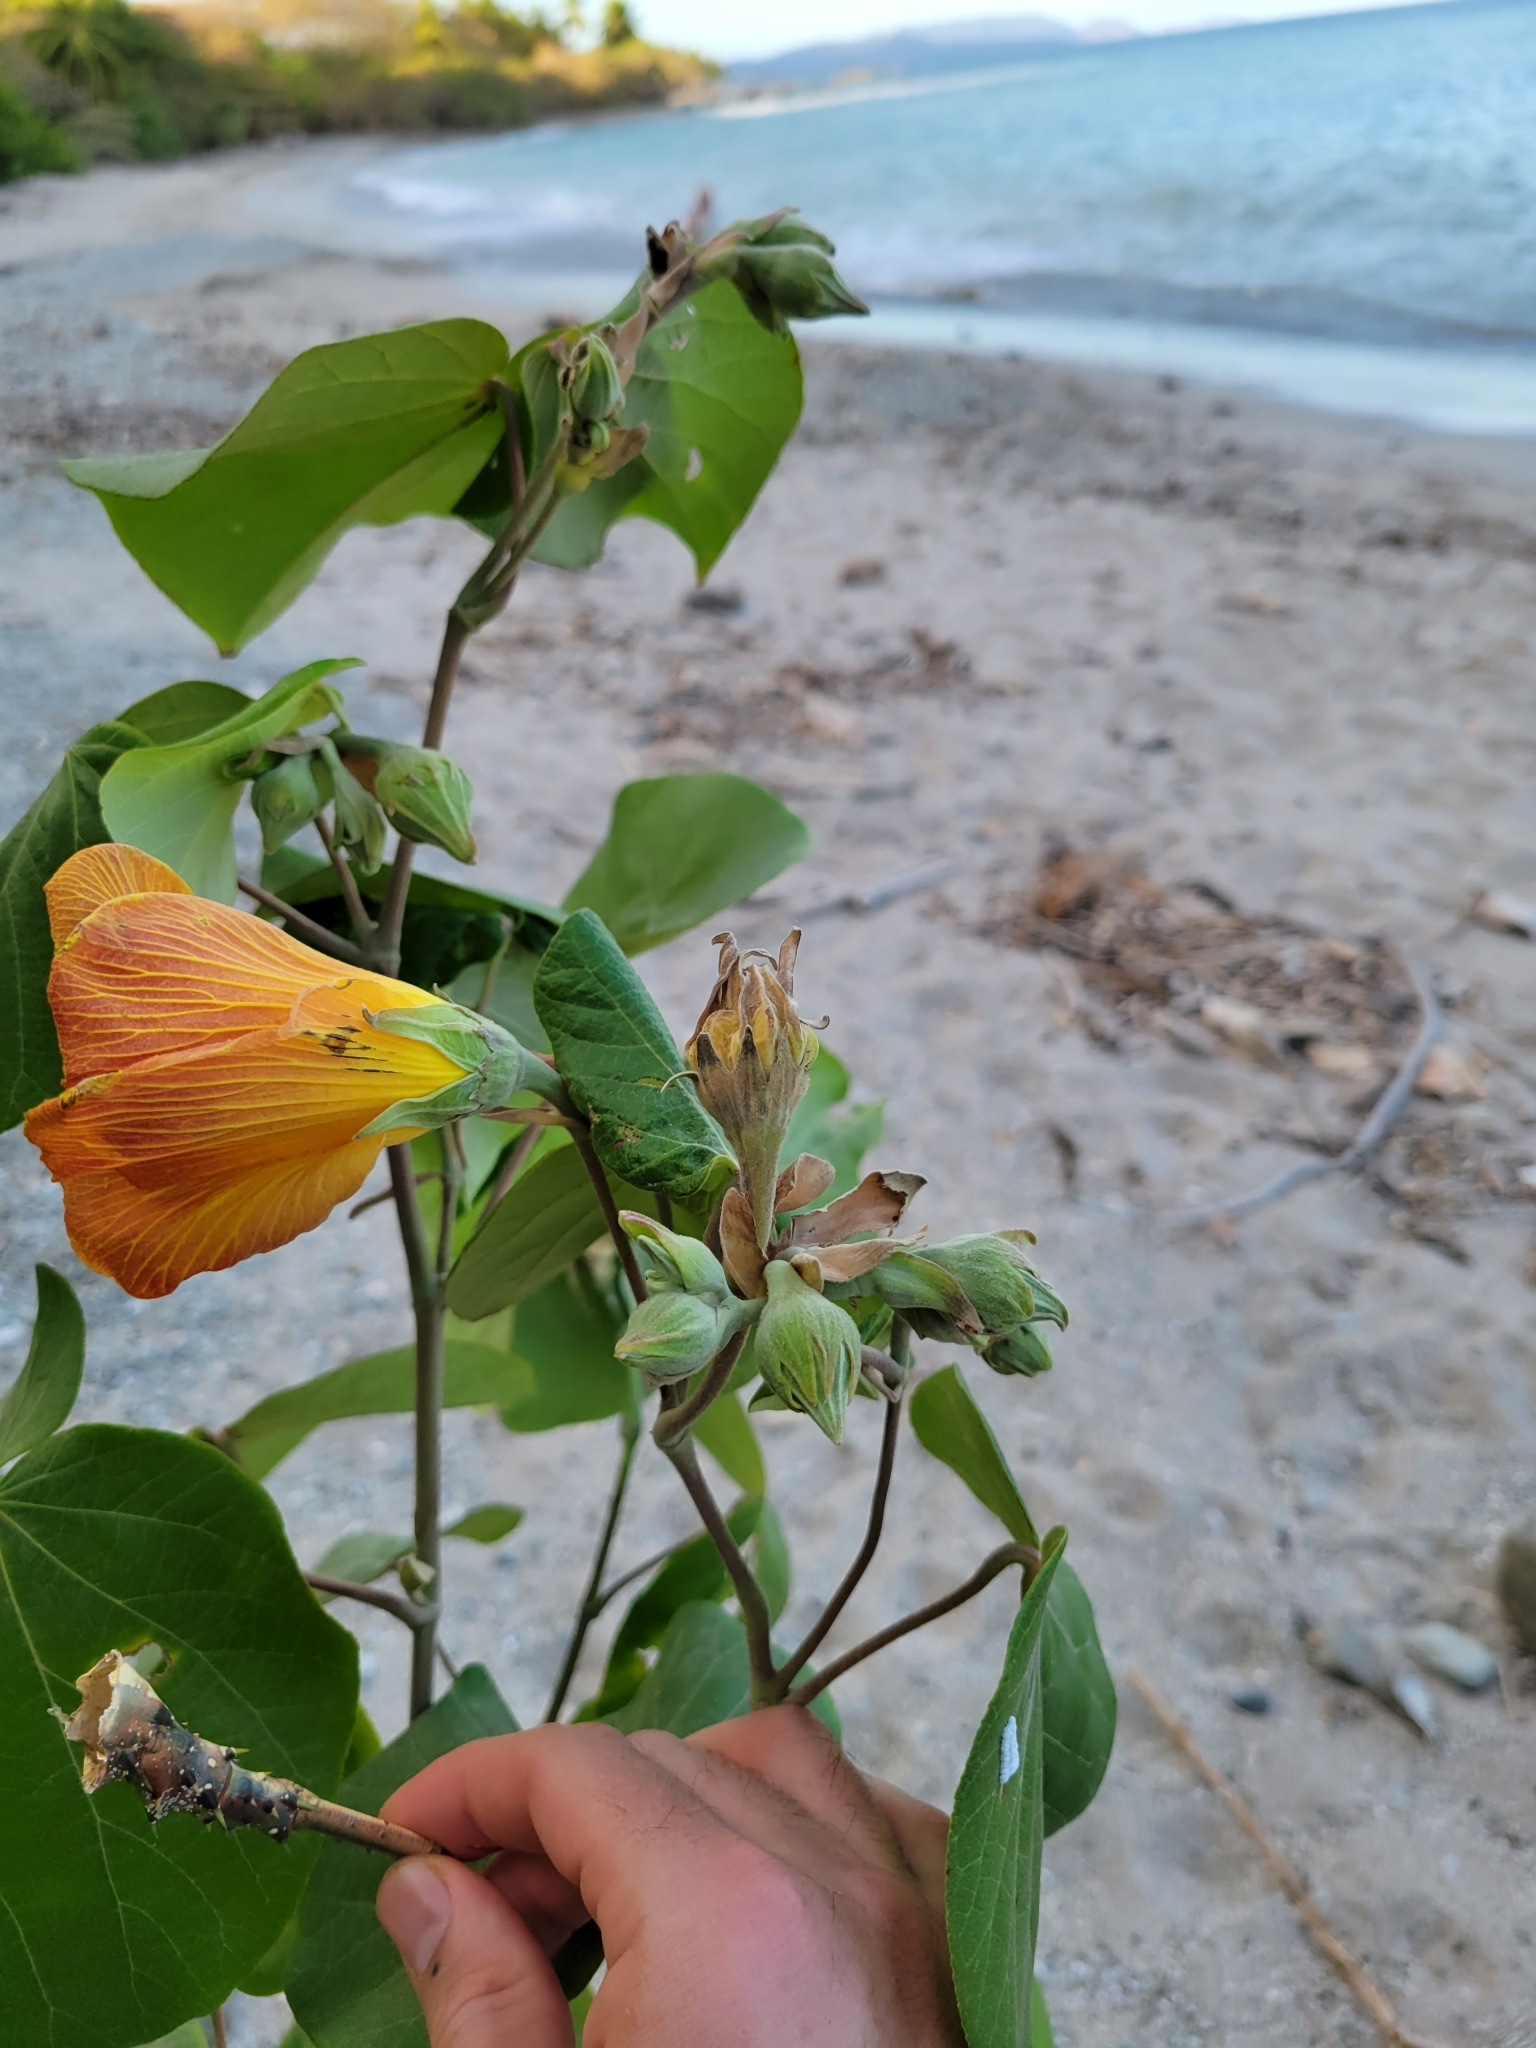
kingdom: Plantae
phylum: Tracheophyta
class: Magnoliopsida
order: Malvales
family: Malvaceae
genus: Talipariti
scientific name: Talipariti pernambucense
